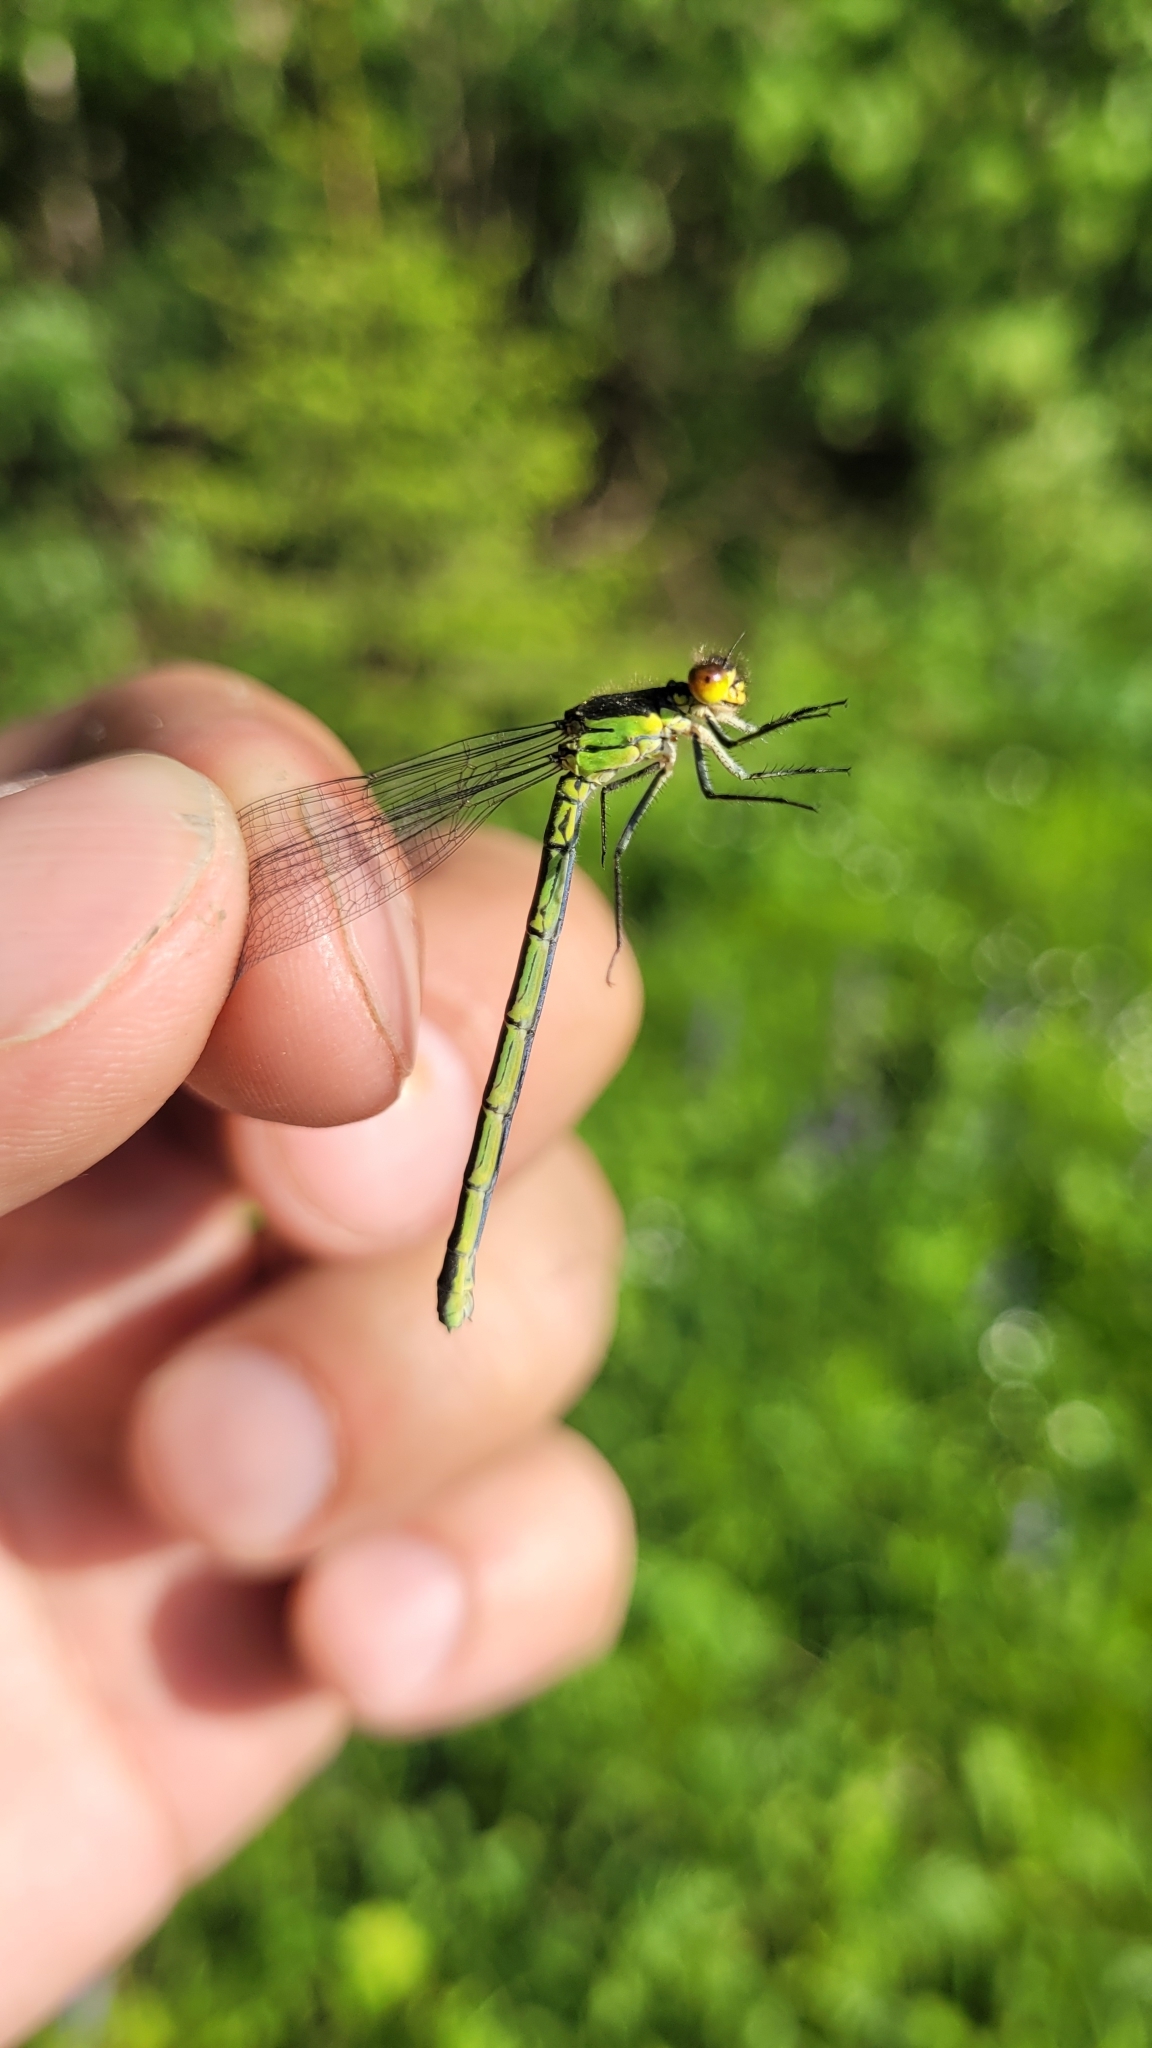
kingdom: Animalia
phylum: Arthropoda
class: Insecta
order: Odonata
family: Coenagrionidae
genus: Erythromma
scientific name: Erythromma najas
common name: Red-eyed damselfly
